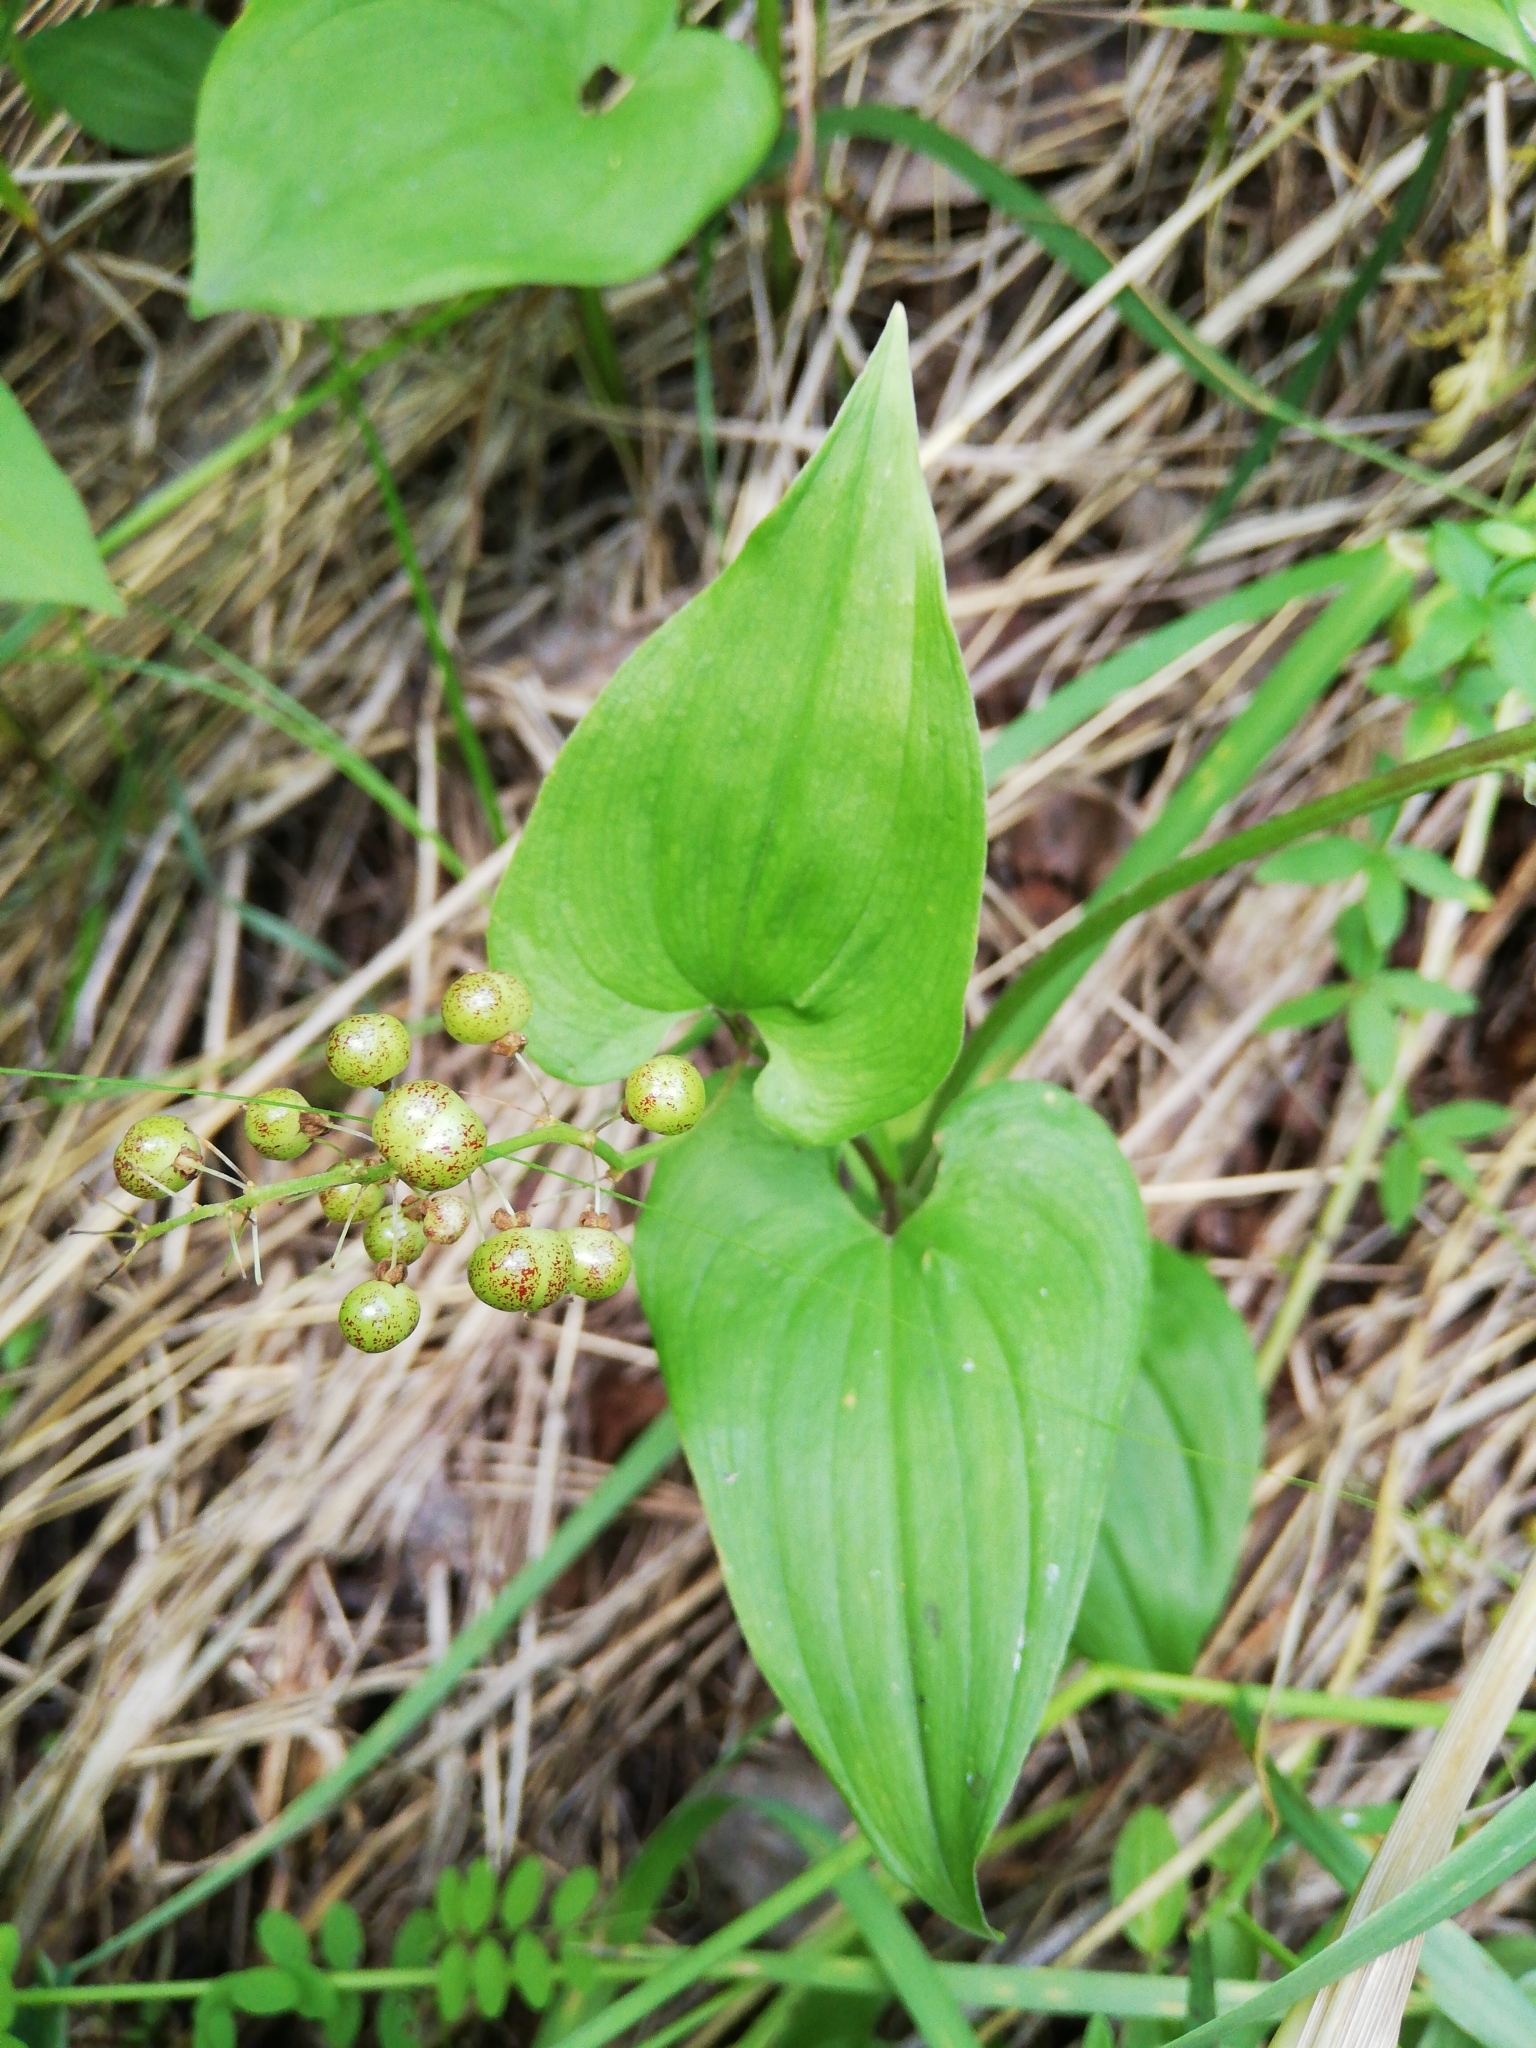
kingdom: Plantae
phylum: Tracheophyta
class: Liliopsida
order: Asparagales
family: Asparagaceae
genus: Maianthemum
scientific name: Maianthemum bifolium
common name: May lily
